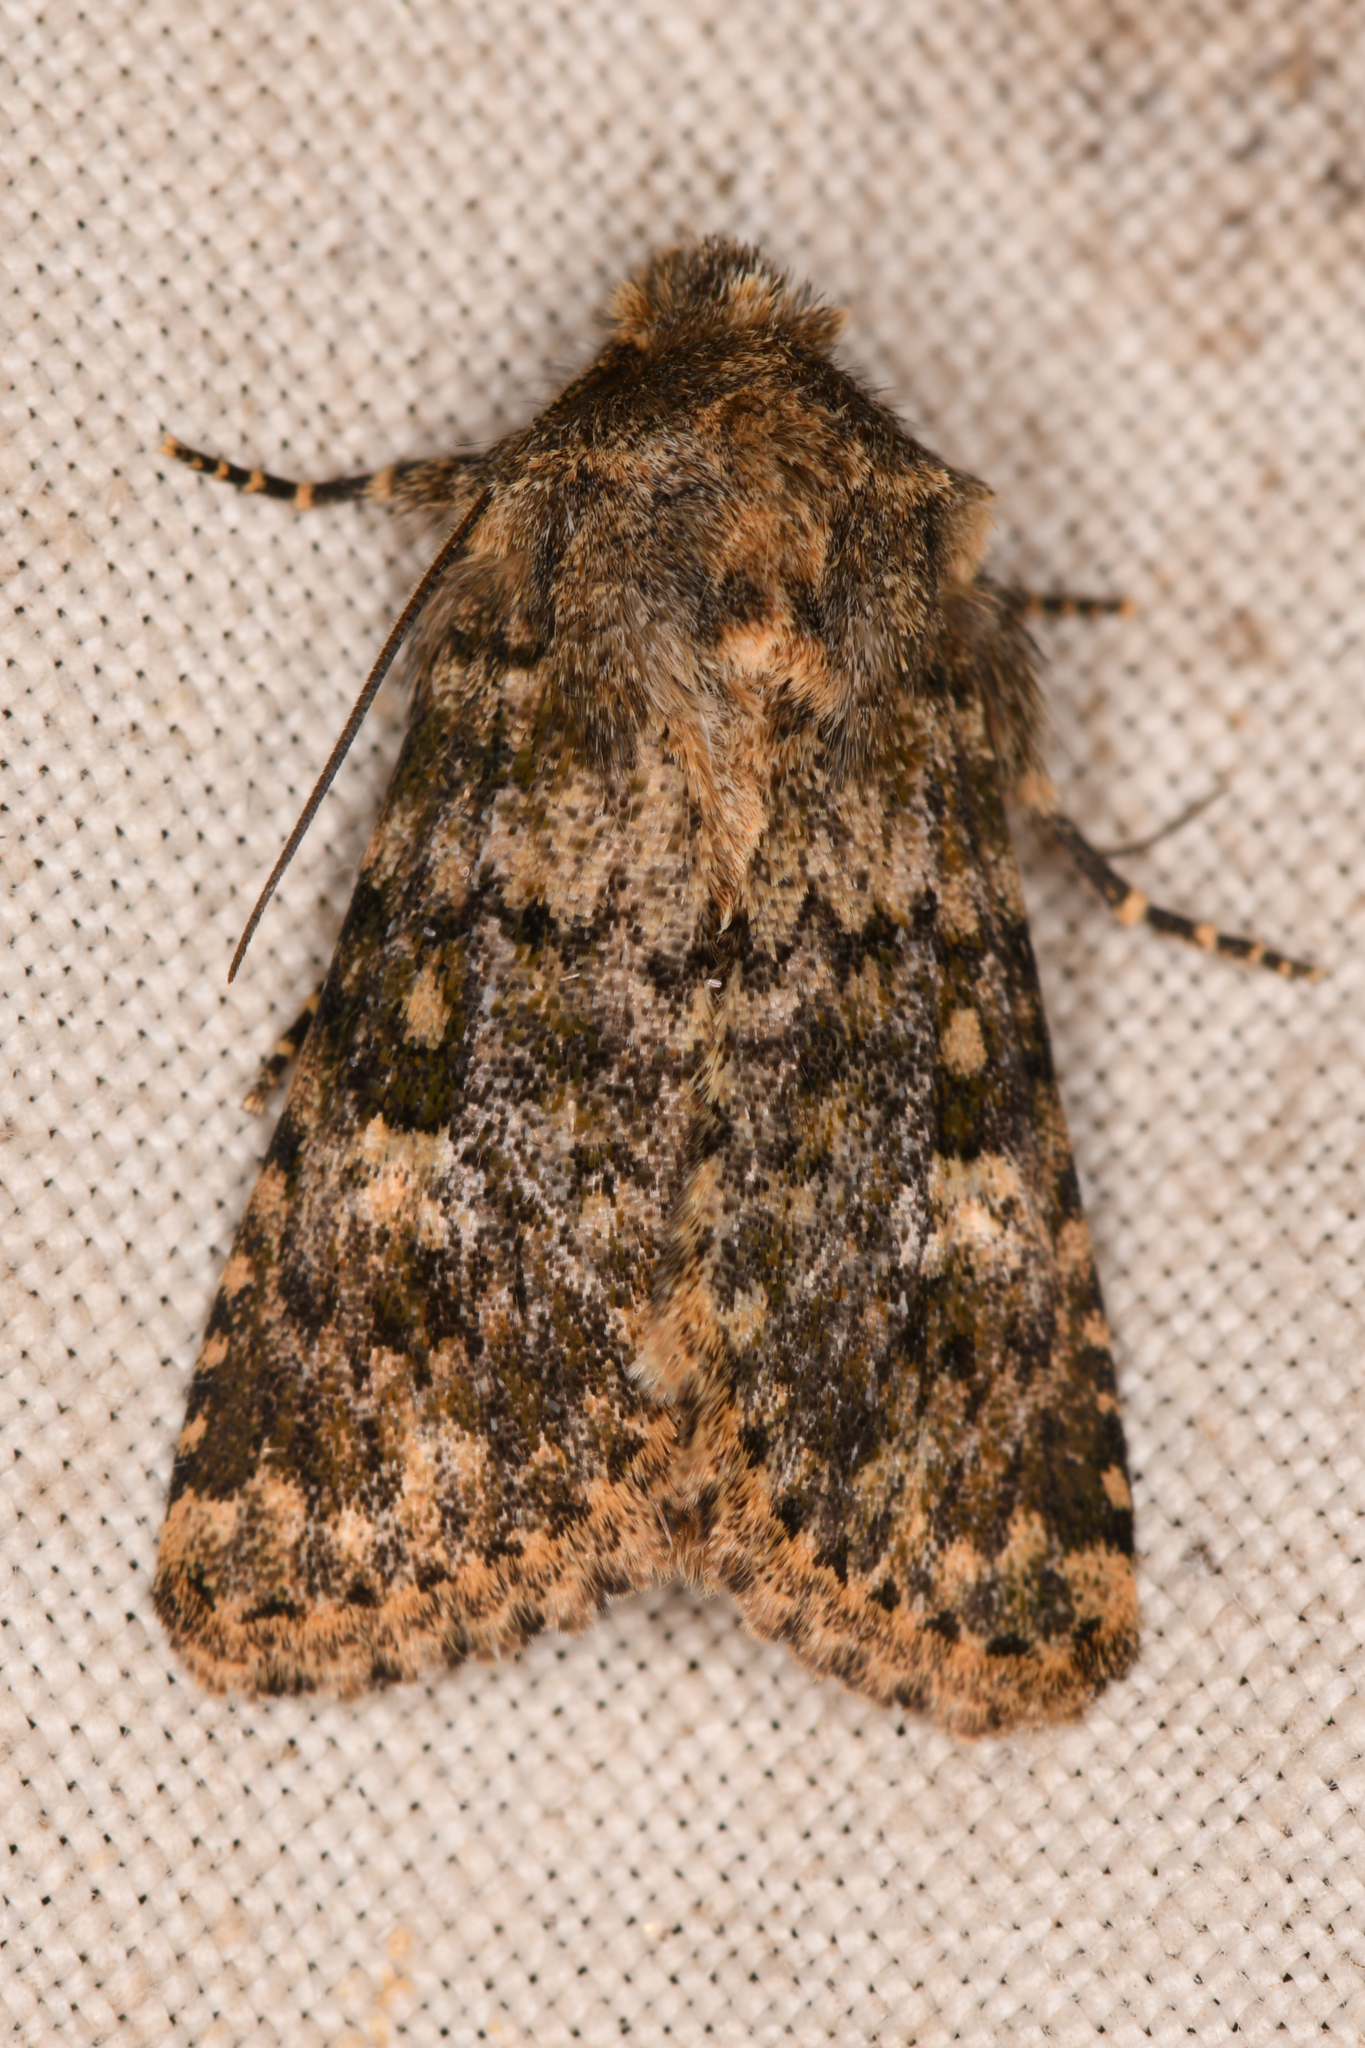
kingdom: Animalia
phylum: Arthropoda
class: Insecta
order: Lepidoptera
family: Noctuidae
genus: Pseudobryomima
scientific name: Pseudobryomima fallax
